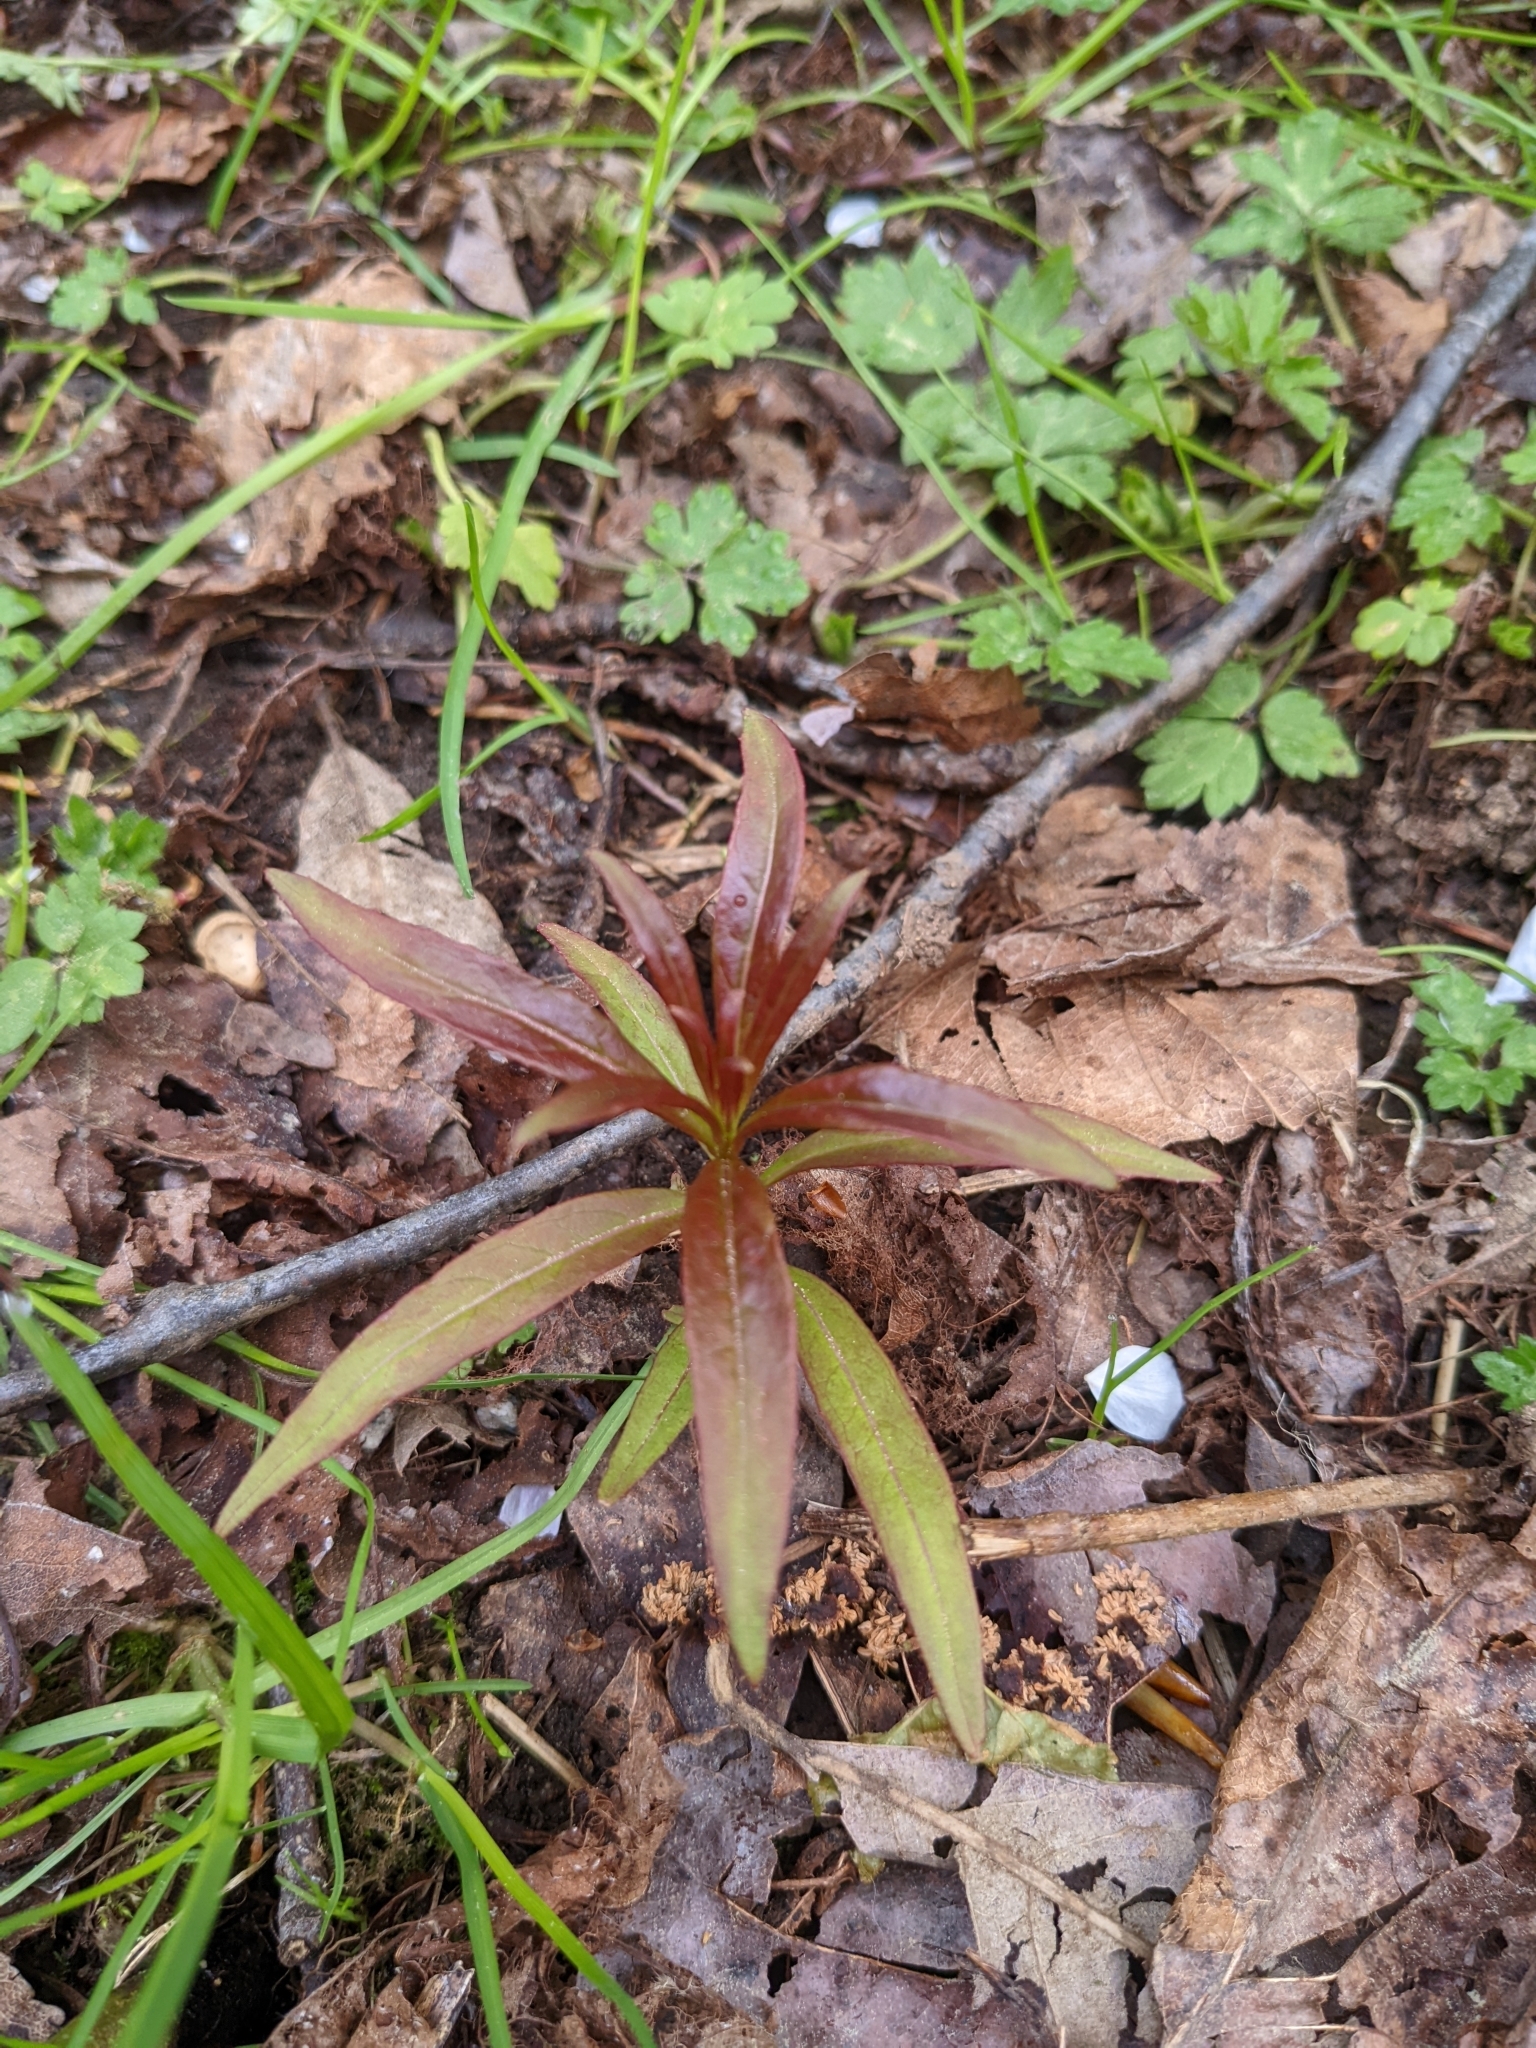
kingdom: Plantae
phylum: Tracheophyta
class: Magnoliopsida
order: Myrtales
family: Onagraceae
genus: Chamaenerion
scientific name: Chamaenerion angustifolium
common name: Fireweed
